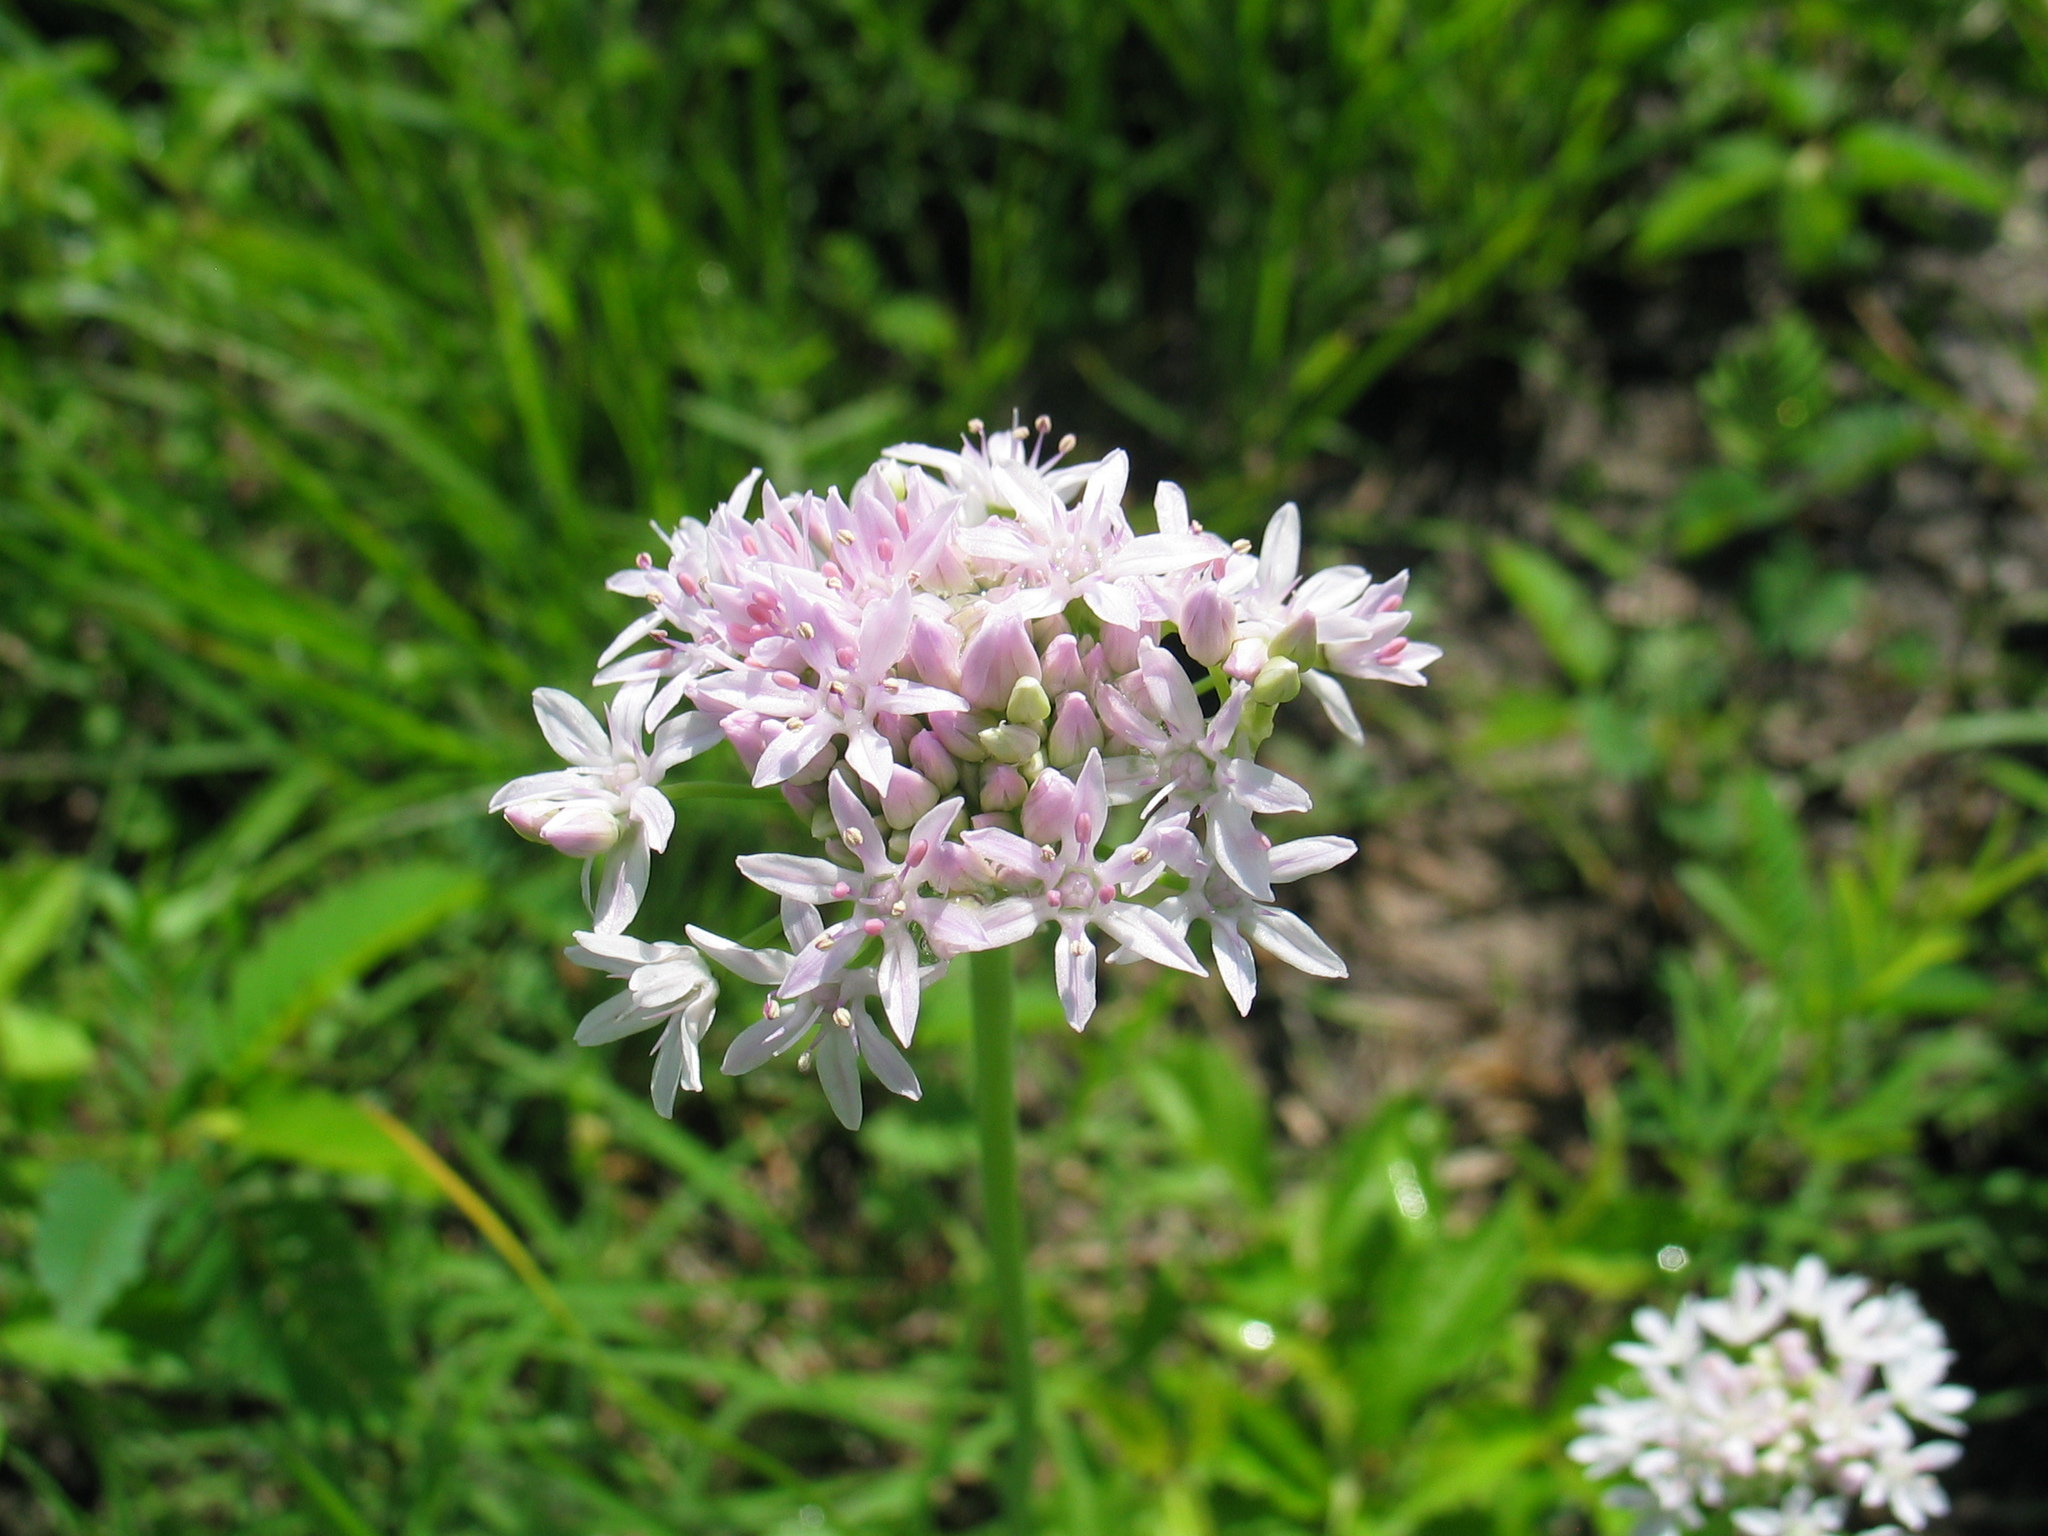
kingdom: Plantae
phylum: Tracheophyta
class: Liliopsida
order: Asparagales
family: Amaryllidaceae
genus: Allium
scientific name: Allium canadense
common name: Meadow garlic
